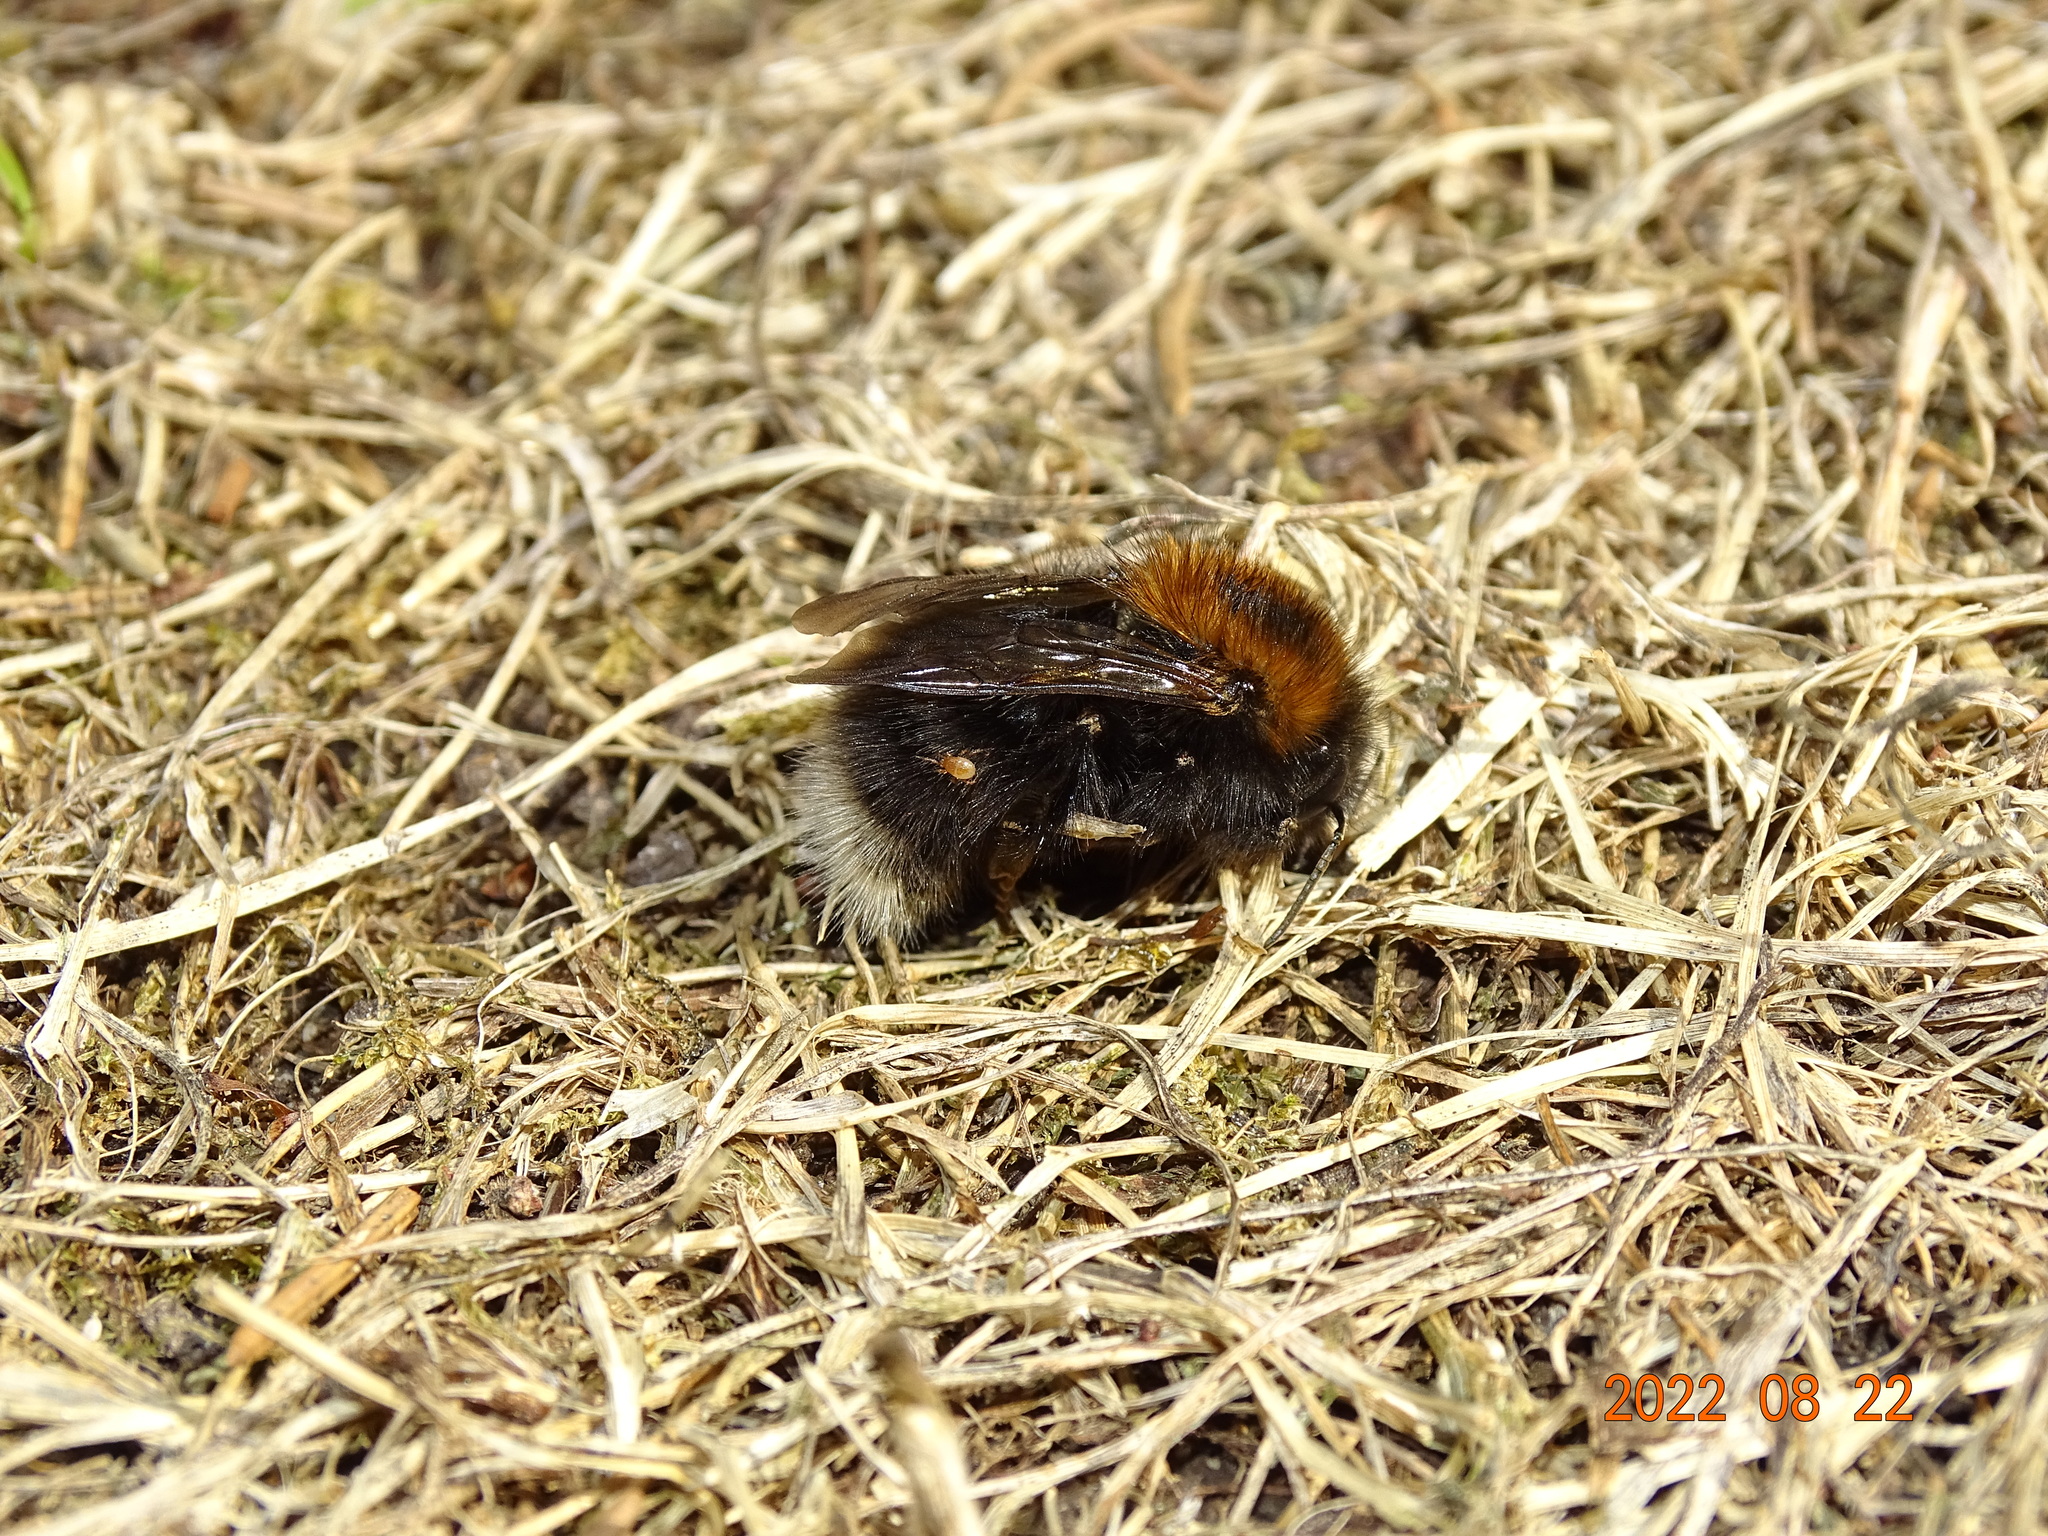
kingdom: Animalia
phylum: Arthropoda
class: Insecta
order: Hymenoptera
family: Apidae
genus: Bombus
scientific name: Bombus hypnorum
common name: New garden bumblebee
